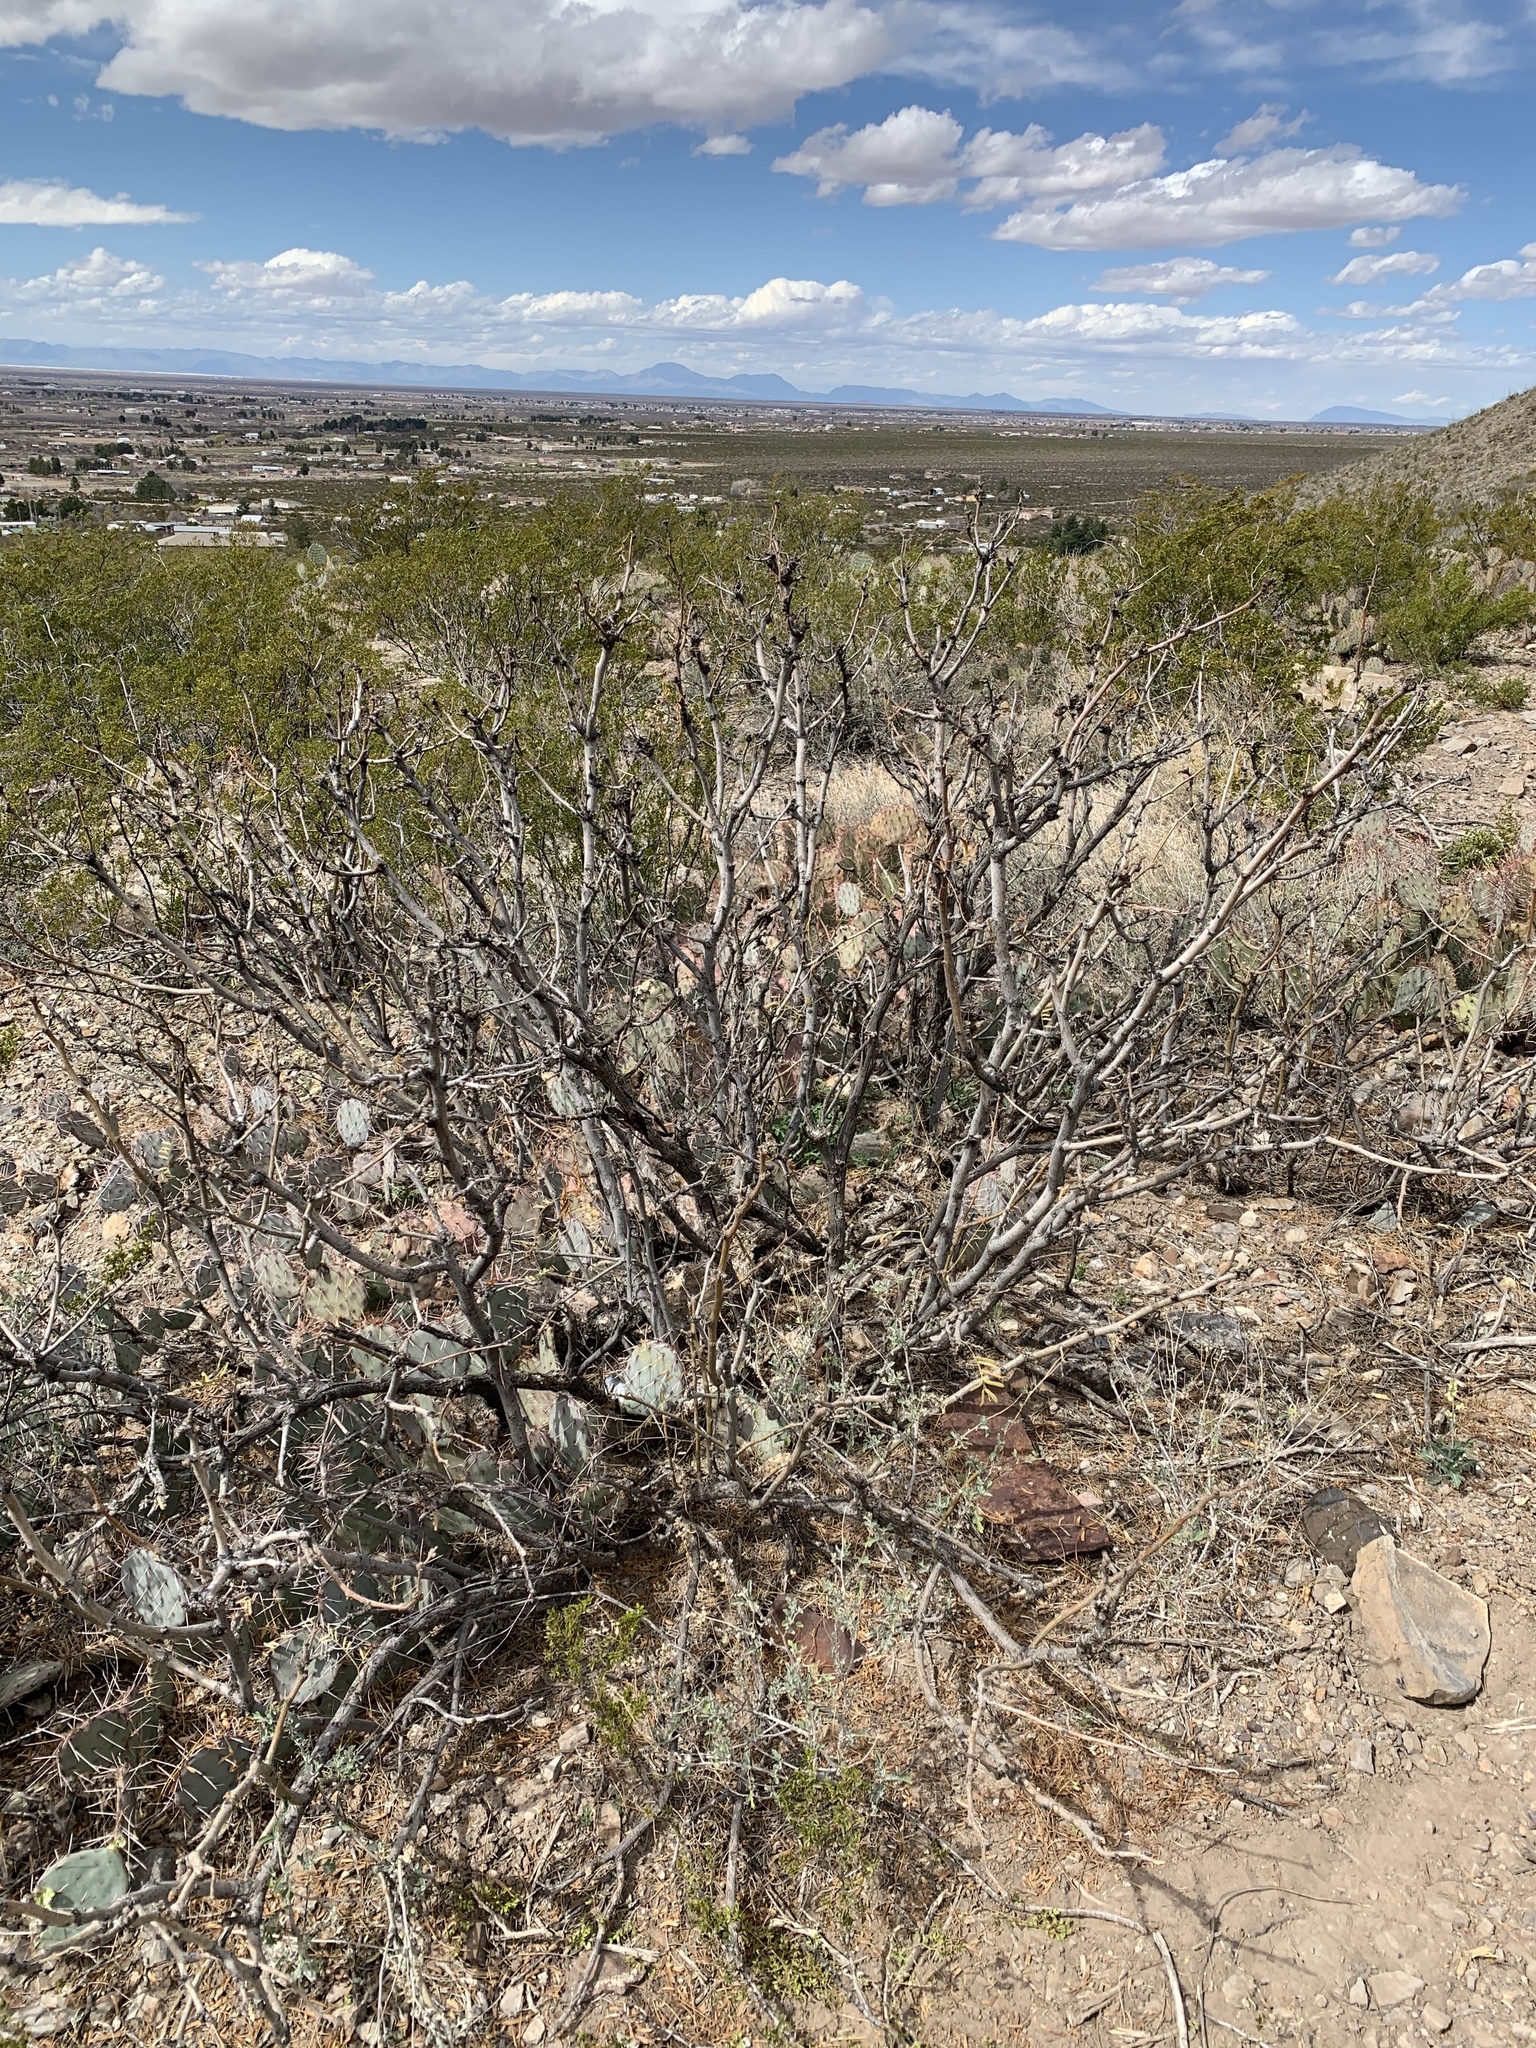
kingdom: Plantae
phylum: Tracheophyta
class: Magnoliopsida
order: Fabales
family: Fabaceae
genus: Prosopis
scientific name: Prosopis glandulosa
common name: Honey mesquite
